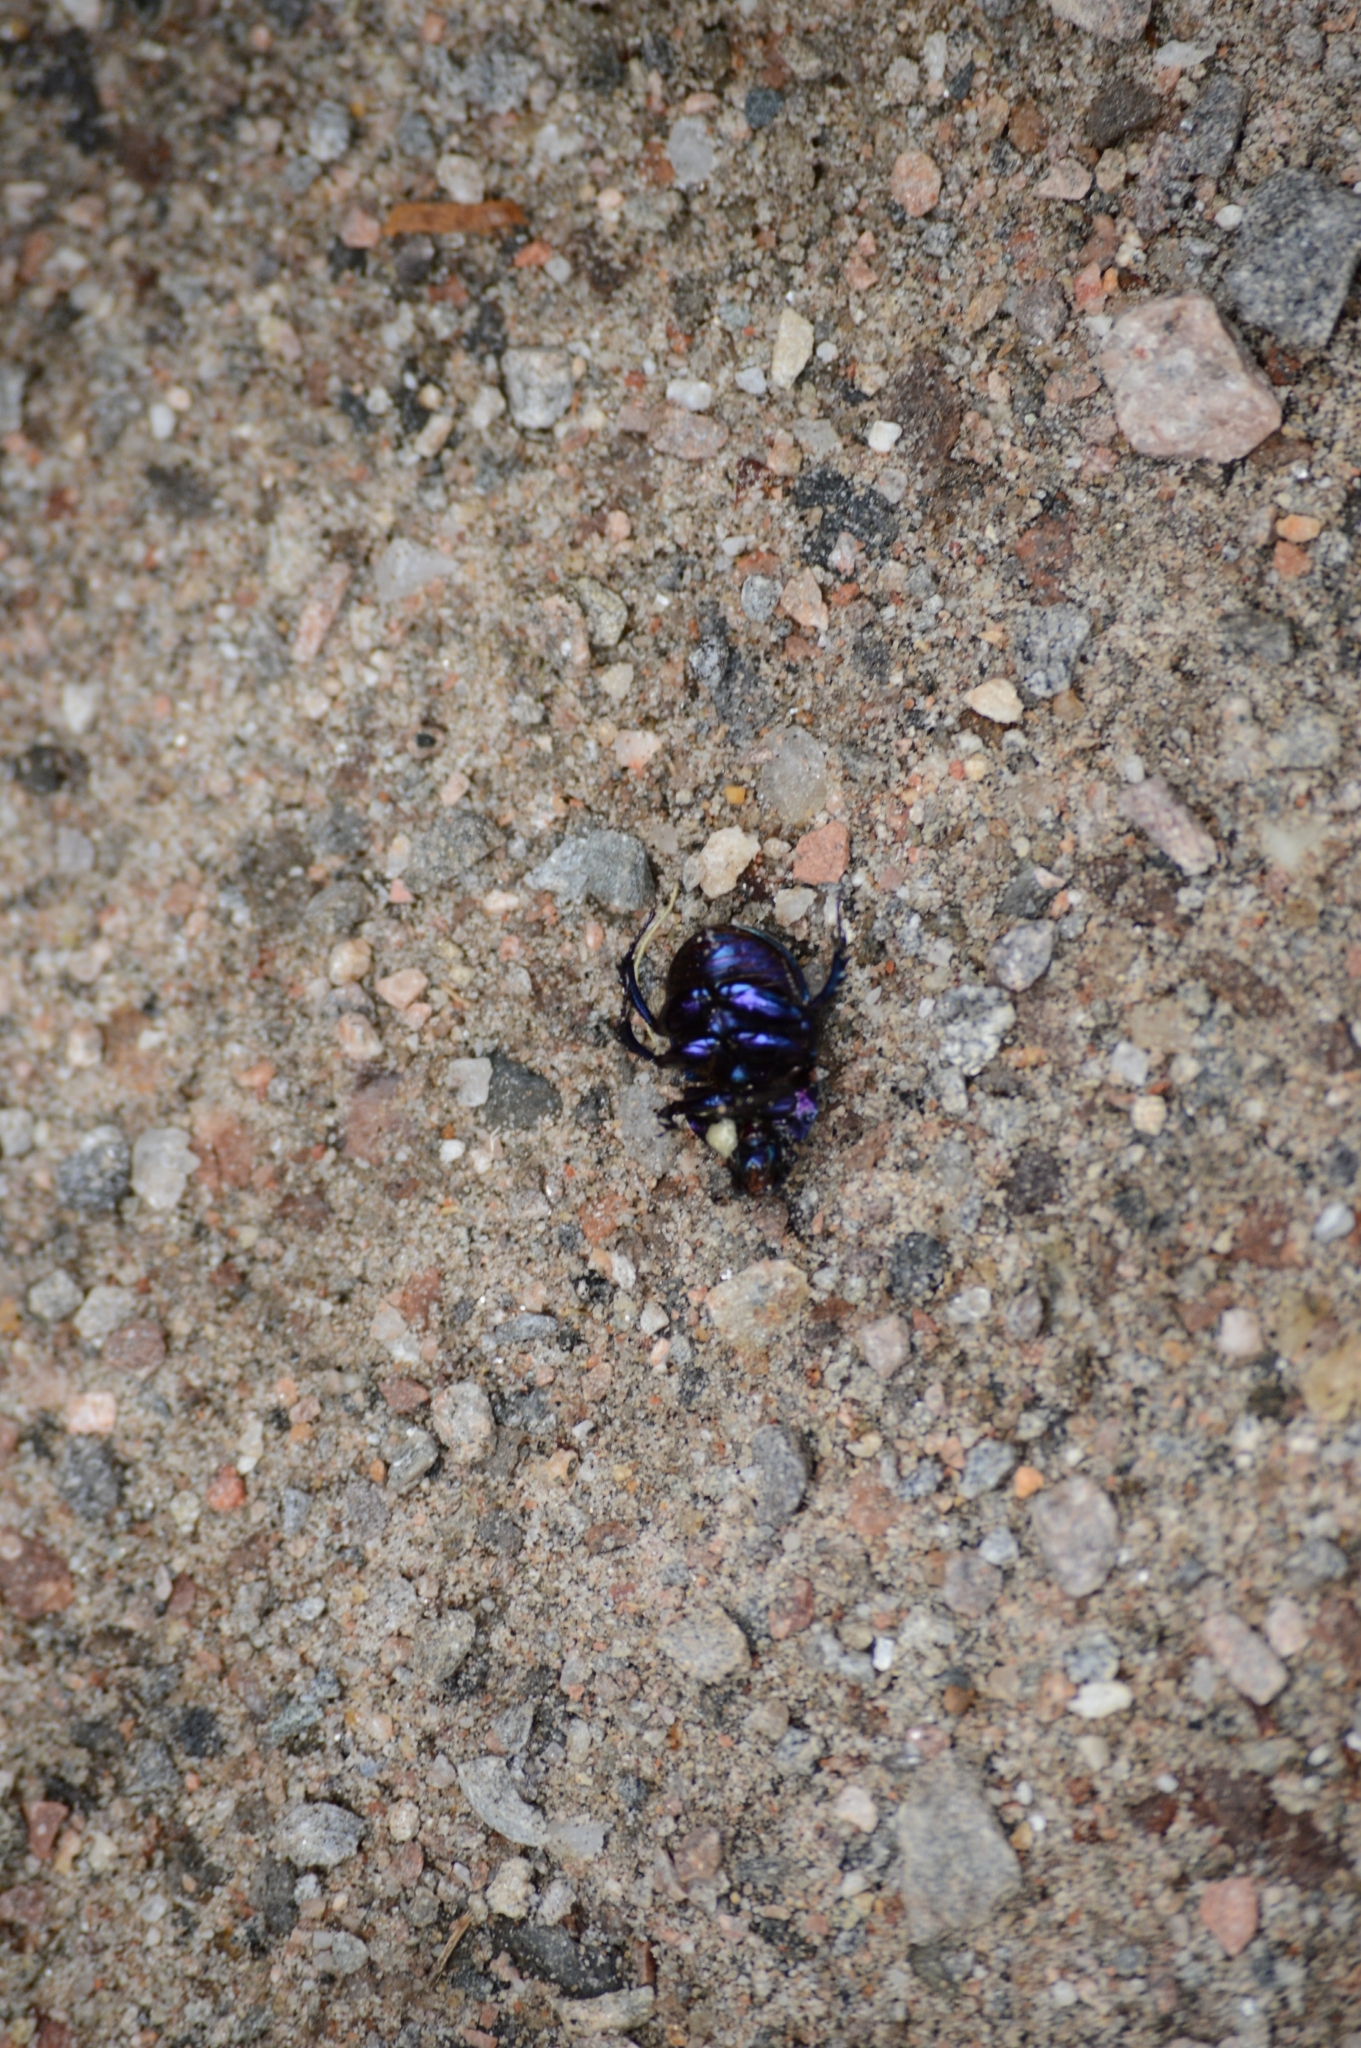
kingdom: Animalia
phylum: Arthropoda
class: Insecta
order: Coleoptera
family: Geotrupidae
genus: Anoplotrupes
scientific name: Anoplotrupes stercorosus
